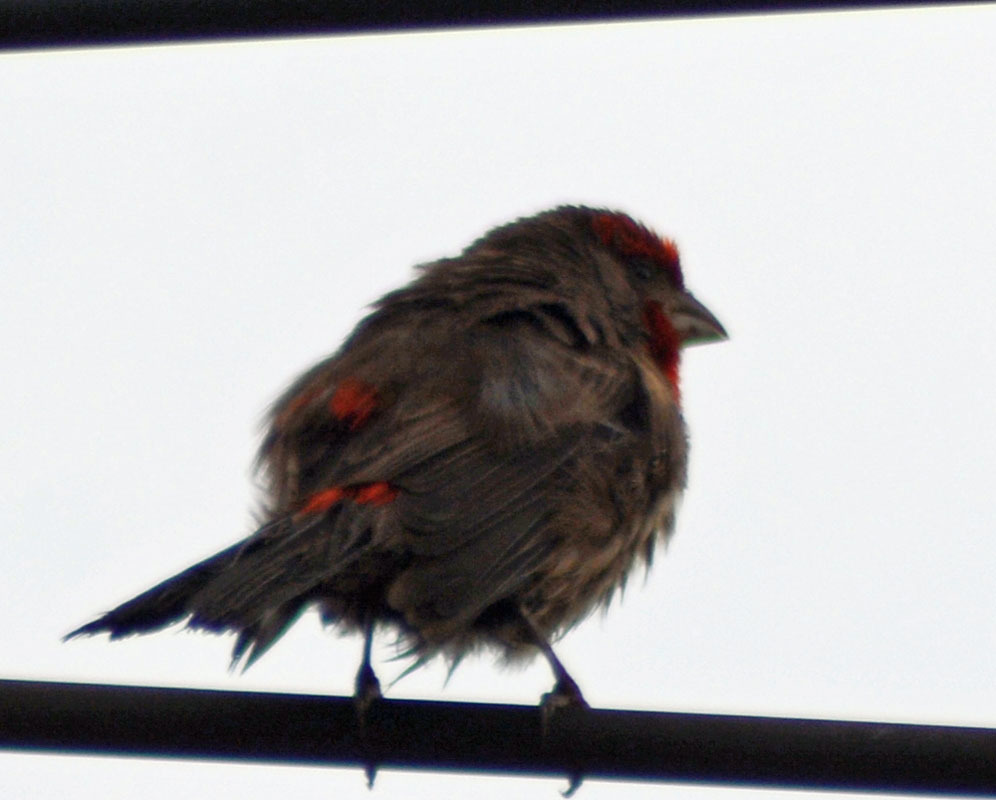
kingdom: Animalia
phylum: Chordata
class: Aves
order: Passeriformes
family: Fringillidae
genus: Haemorhous
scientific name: Haemorhous mexicanus
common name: House finch
